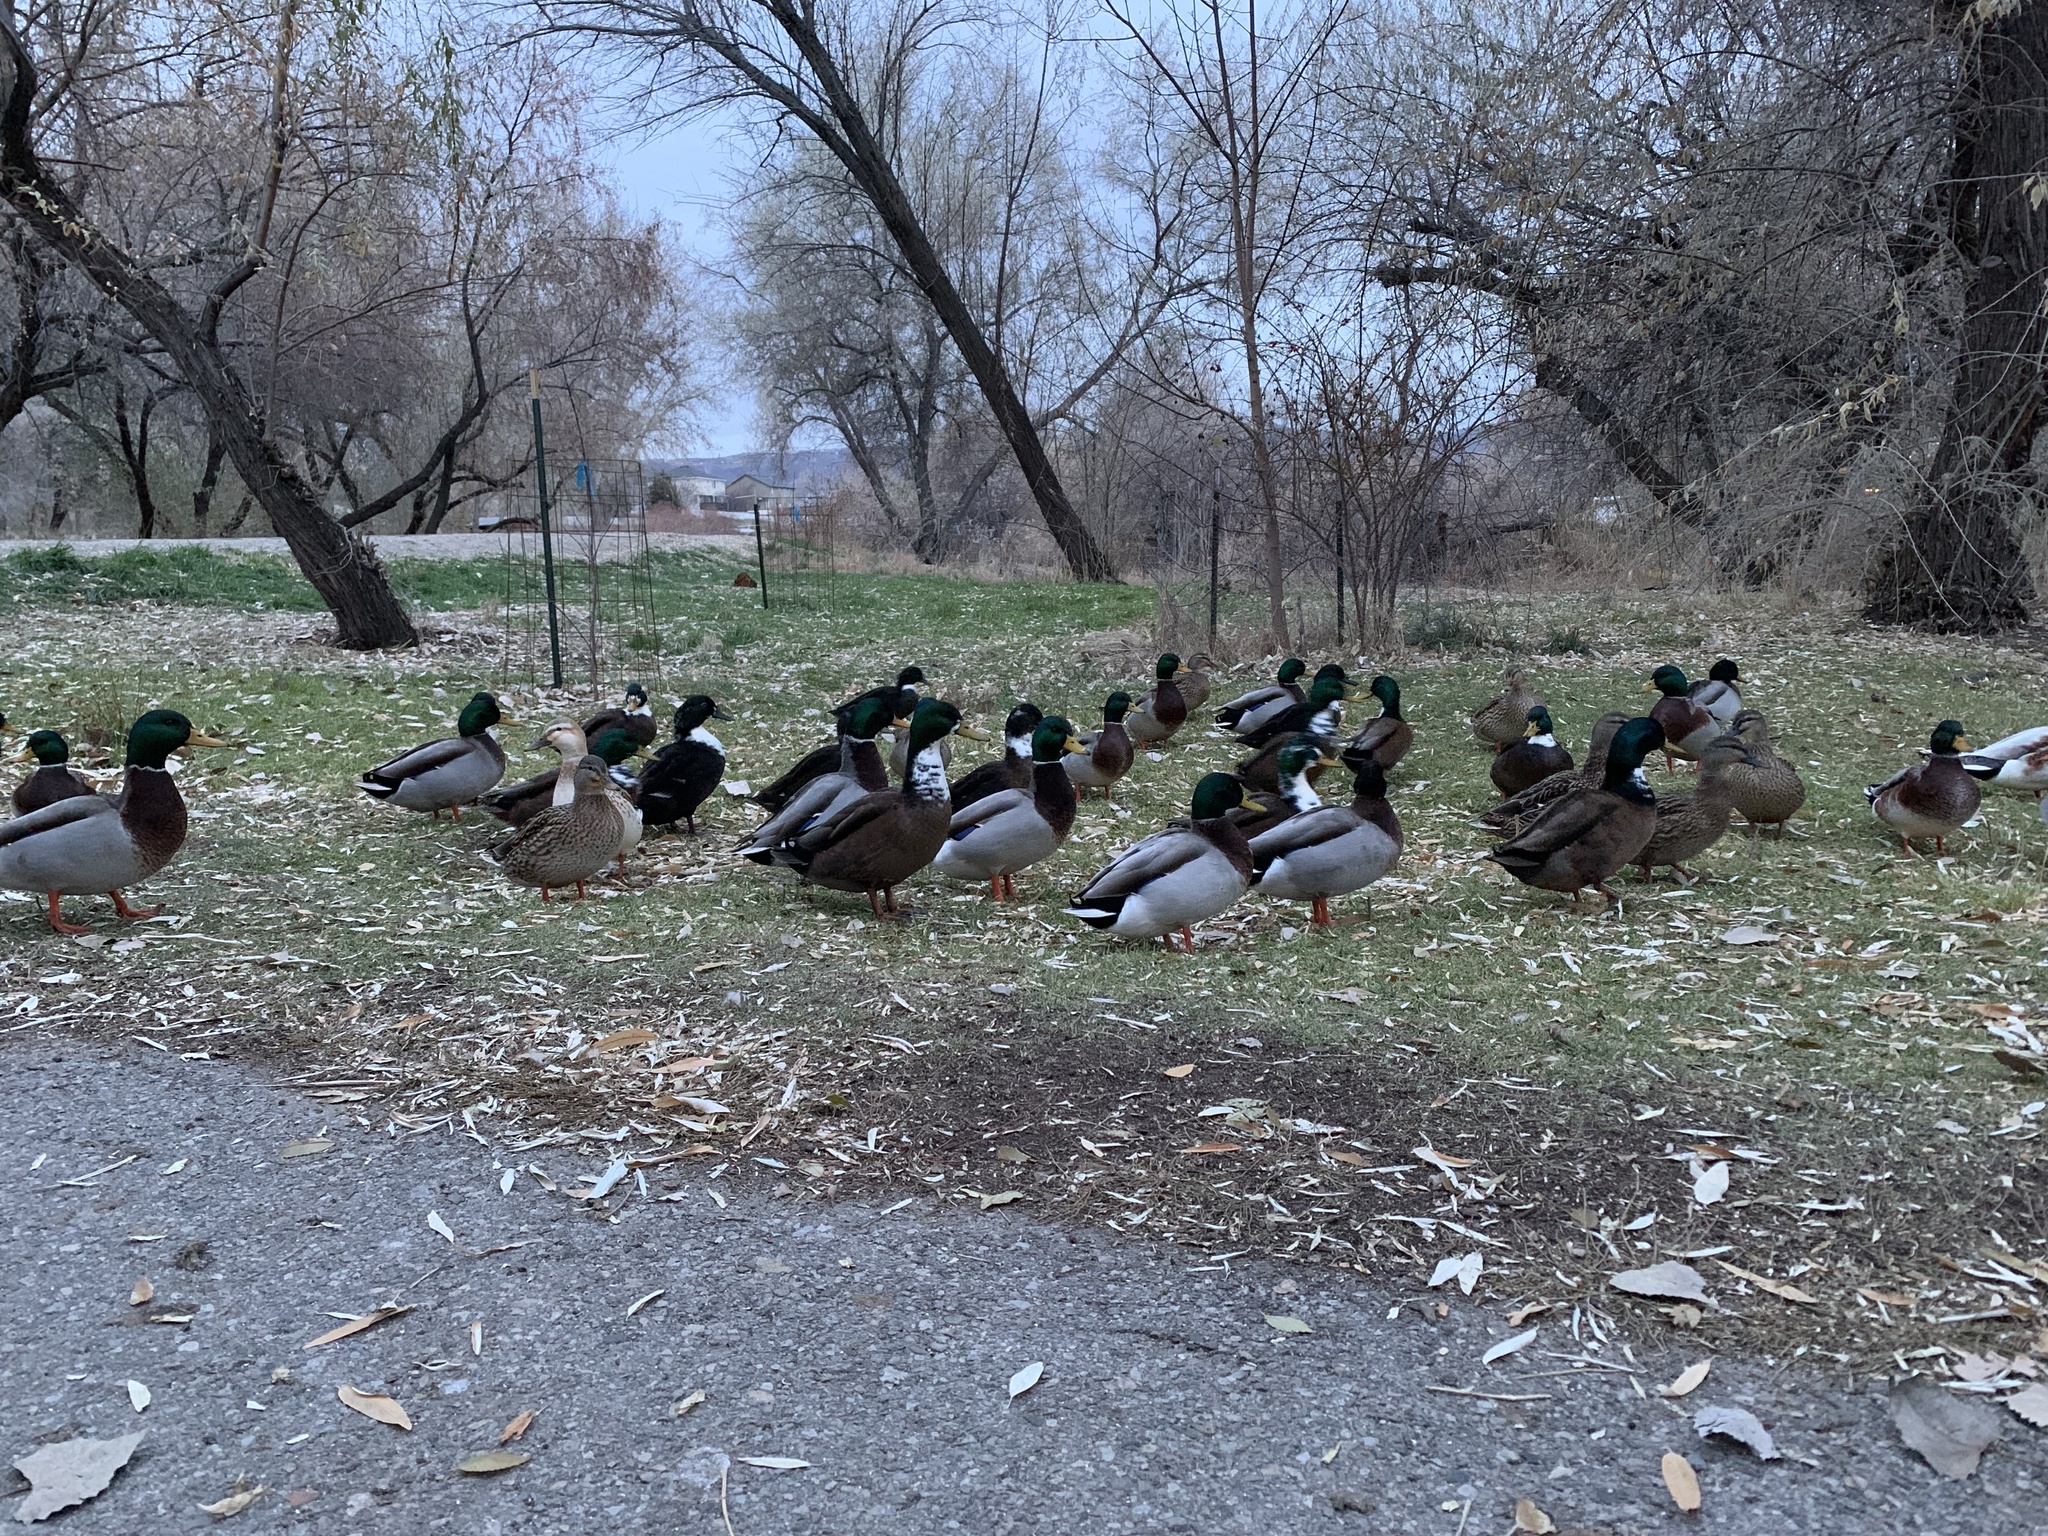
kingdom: Animalia
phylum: Chordata
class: Aves
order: Anseriformes
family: Anatidae
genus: Anas
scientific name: Anas platyrhynchos
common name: Mallard
